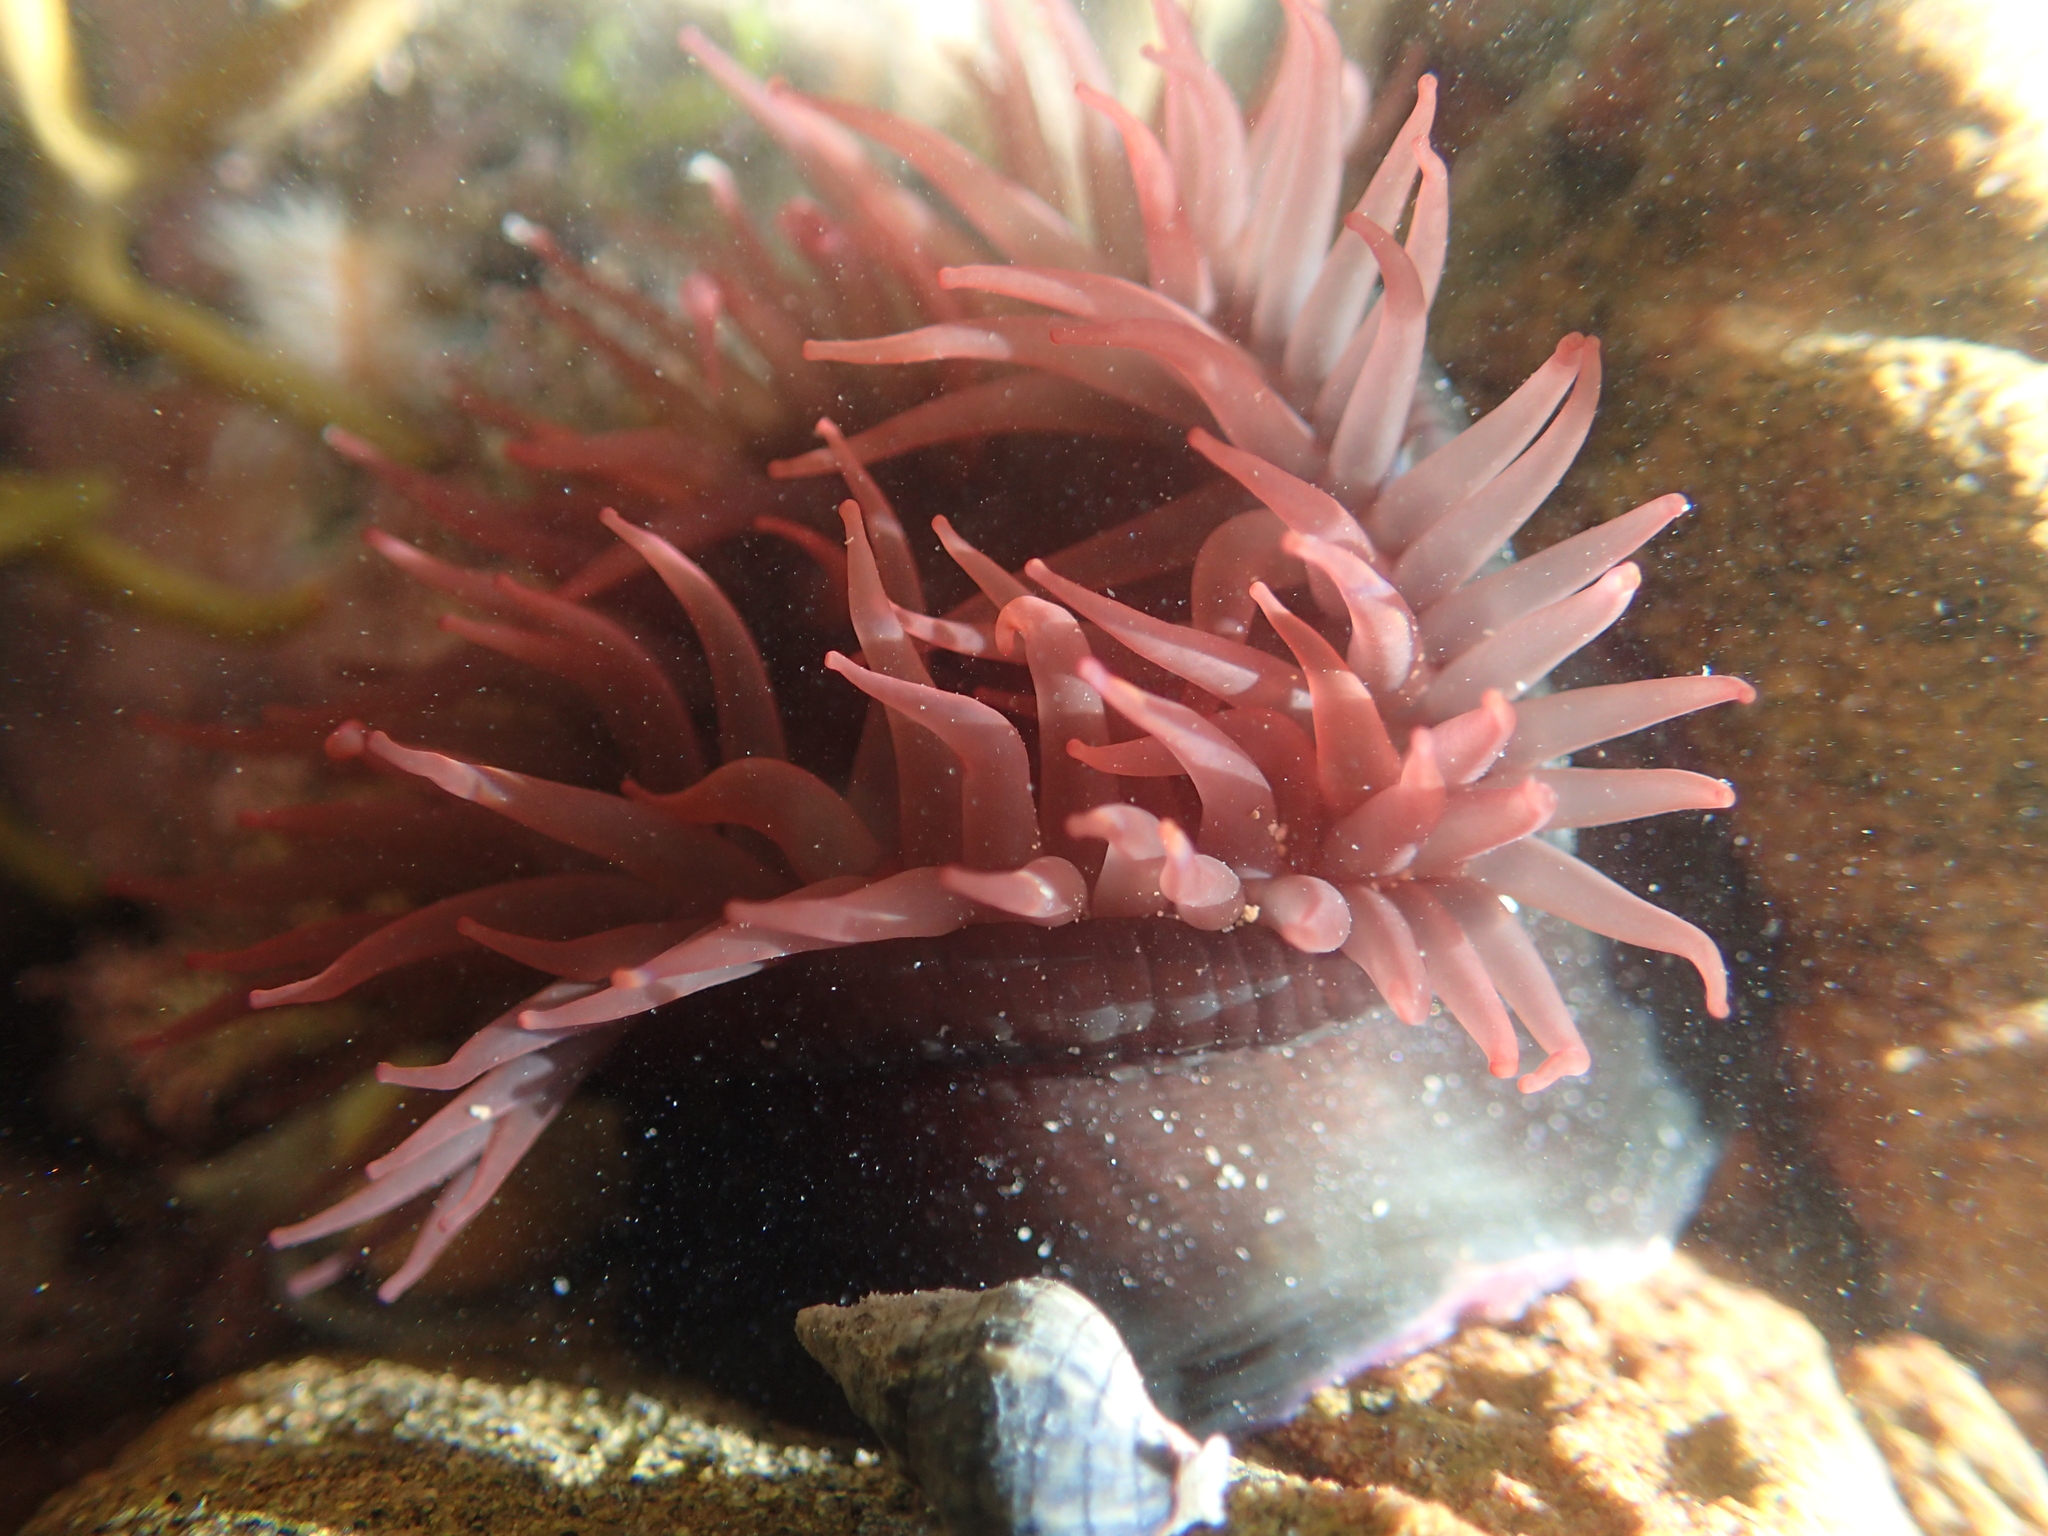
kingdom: Animalia
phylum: Cnidaria
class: Anthozoa
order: Actiniaria
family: Actiniidae
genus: Actinia
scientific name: Actinia tenebrosa
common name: Waratah anemone
